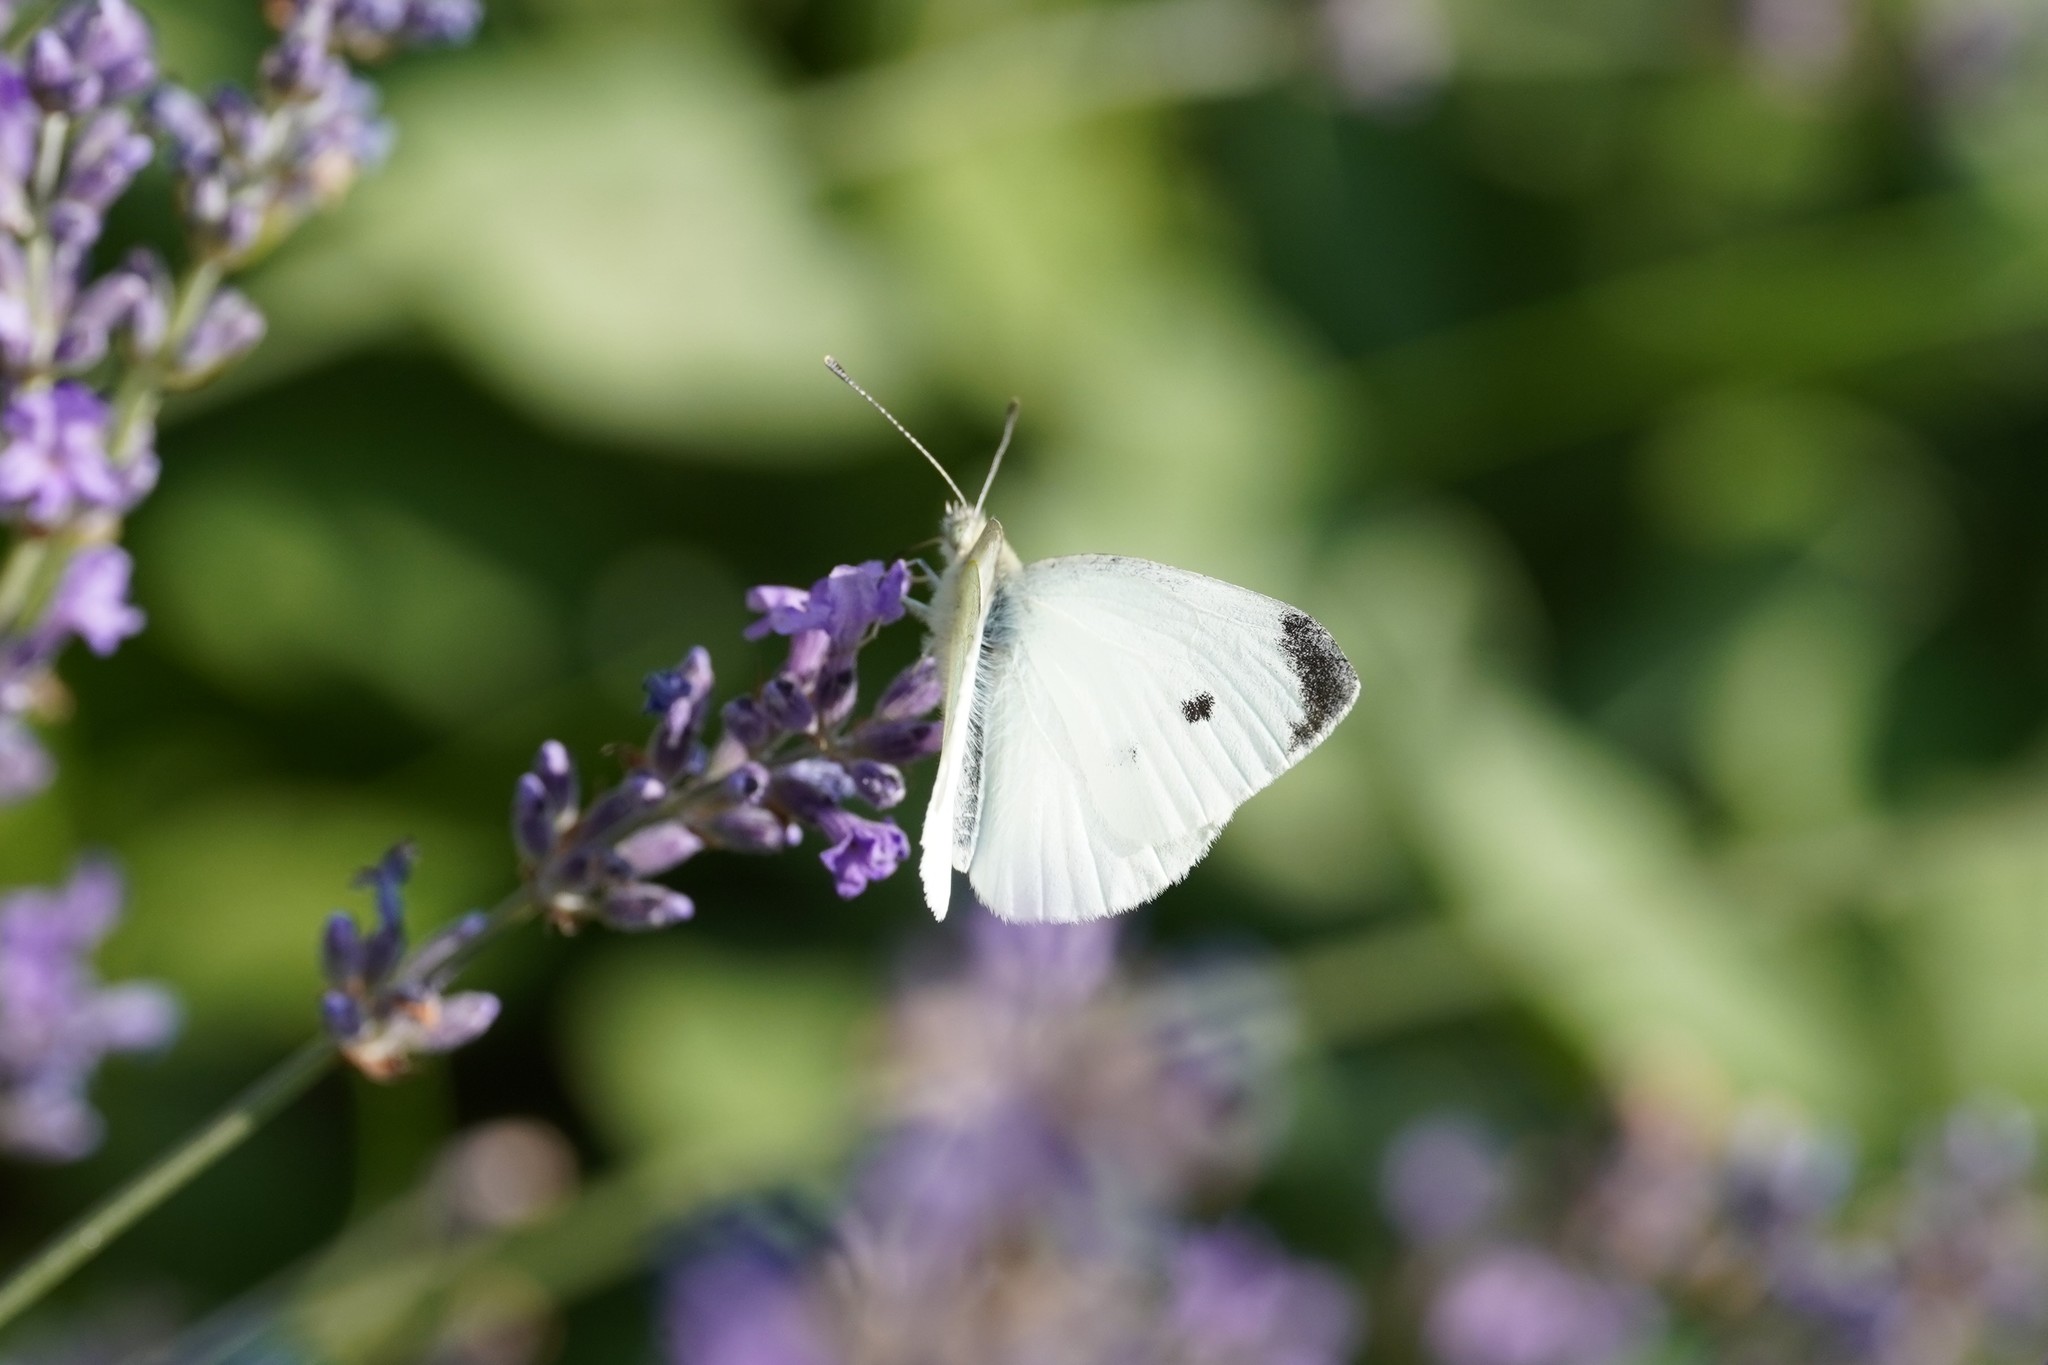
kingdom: Animalia
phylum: Arthropoda
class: Insecta
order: Lepidoptera
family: Pieridae
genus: Pieris
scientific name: Pieris rapae
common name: Small white
